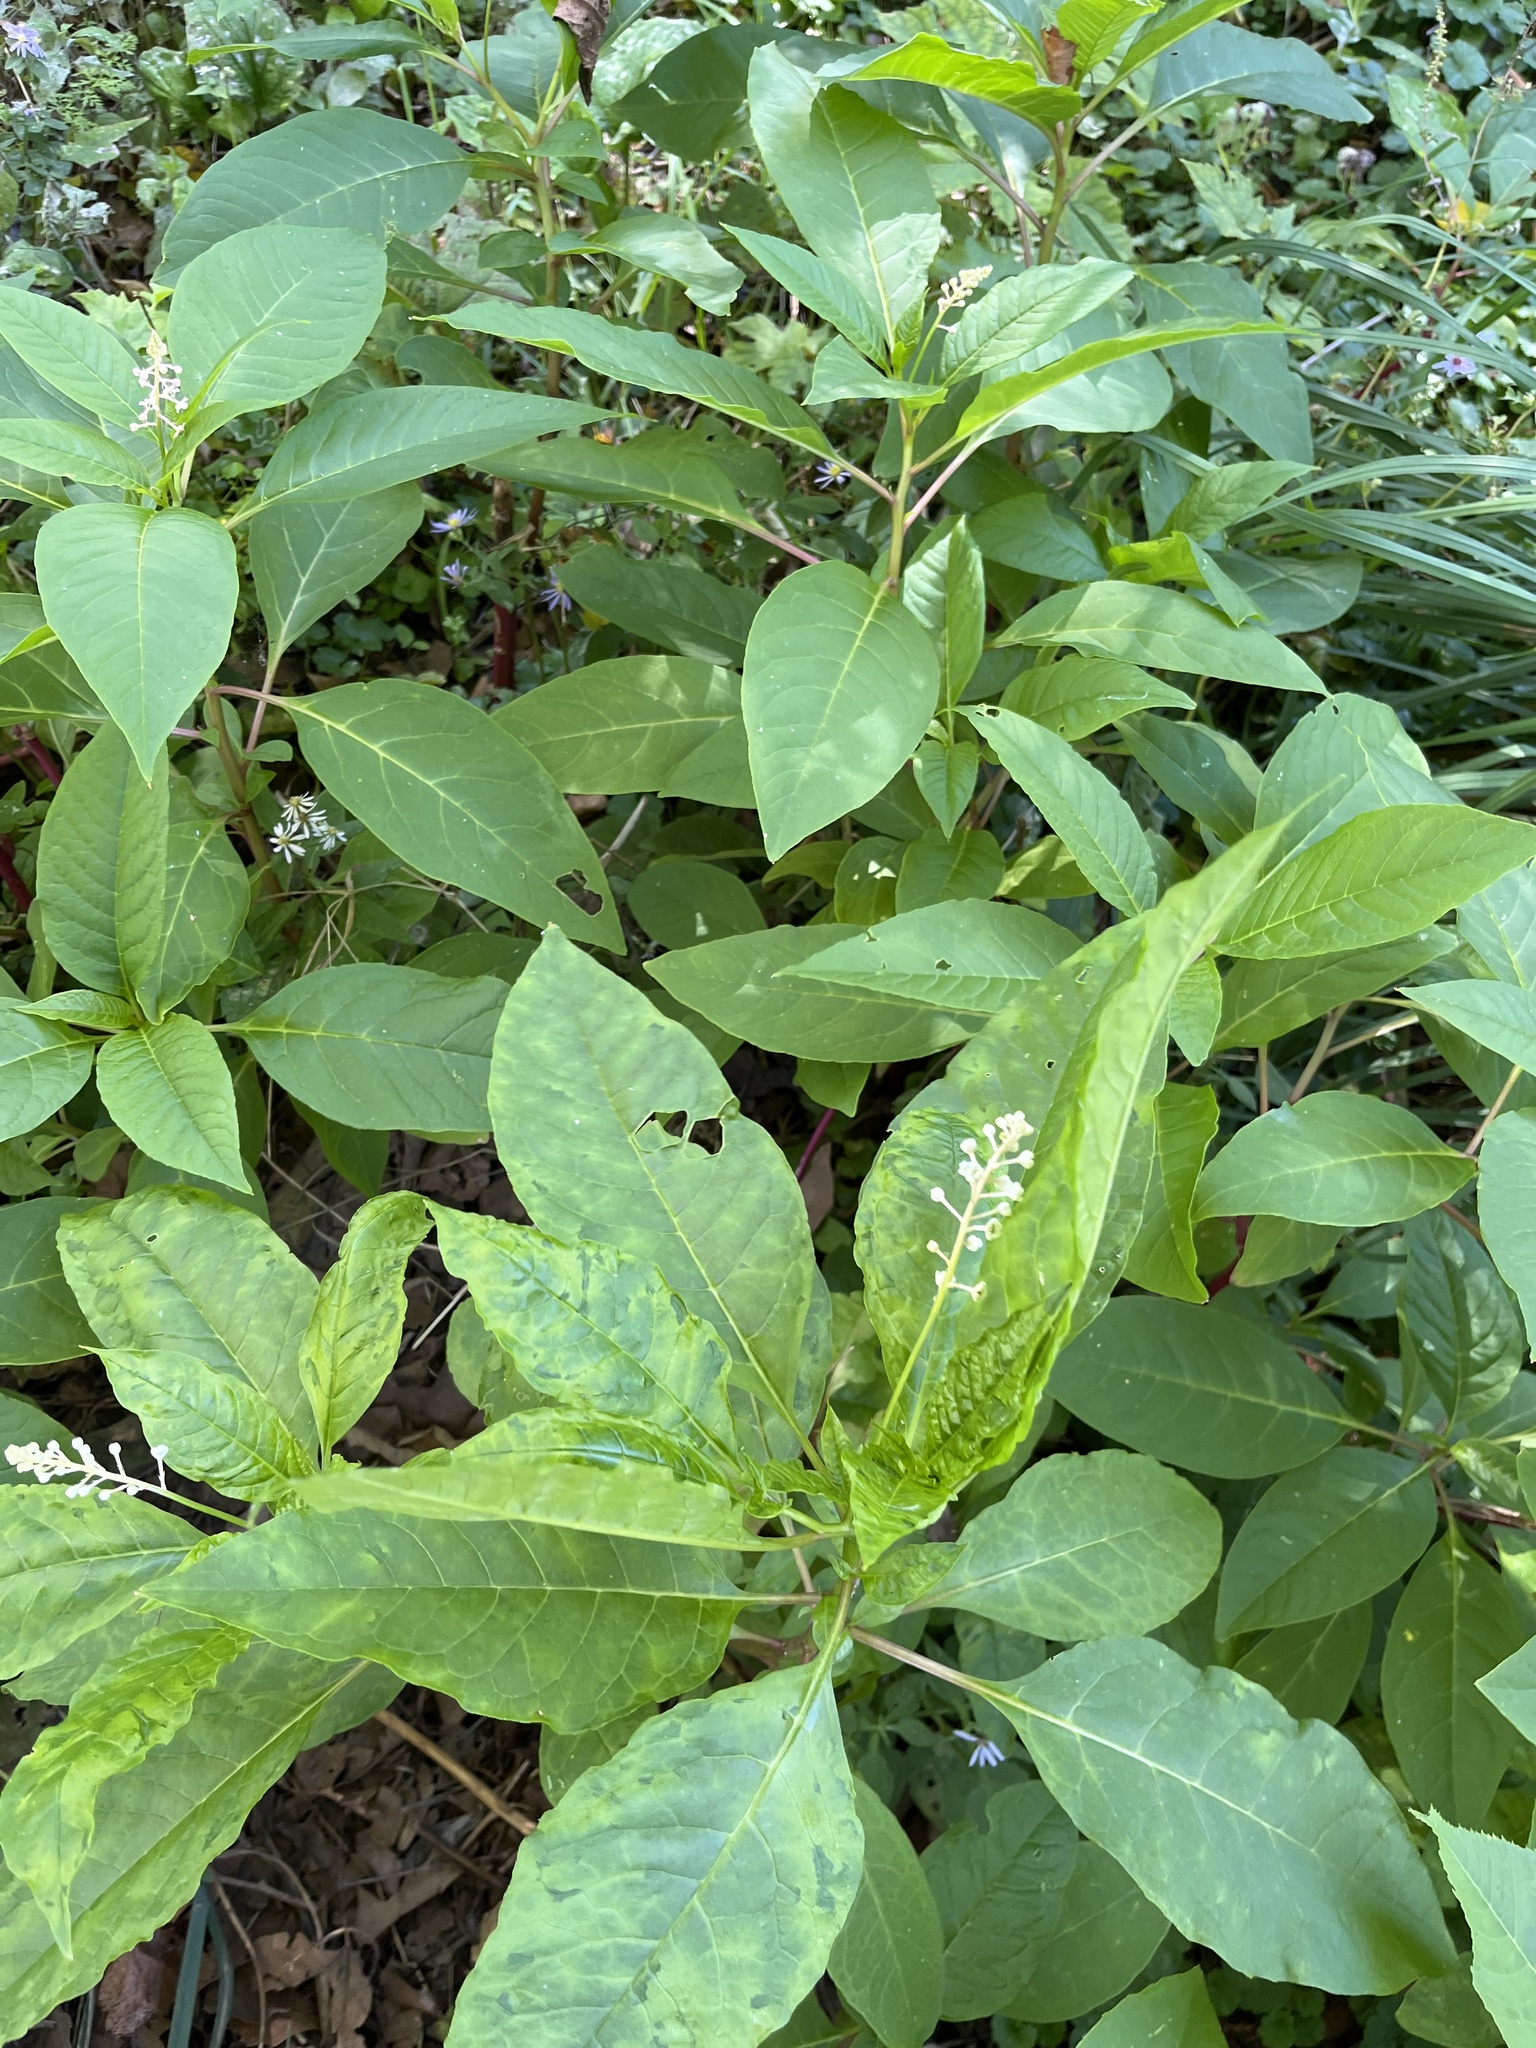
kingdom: Plantae
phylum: Tracheophyta
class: Magnoliopsida
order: Caryophyllales
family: Phytolaccaceae
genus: Phytolacca
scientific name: Phytolacca americana
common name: American pokeweed
